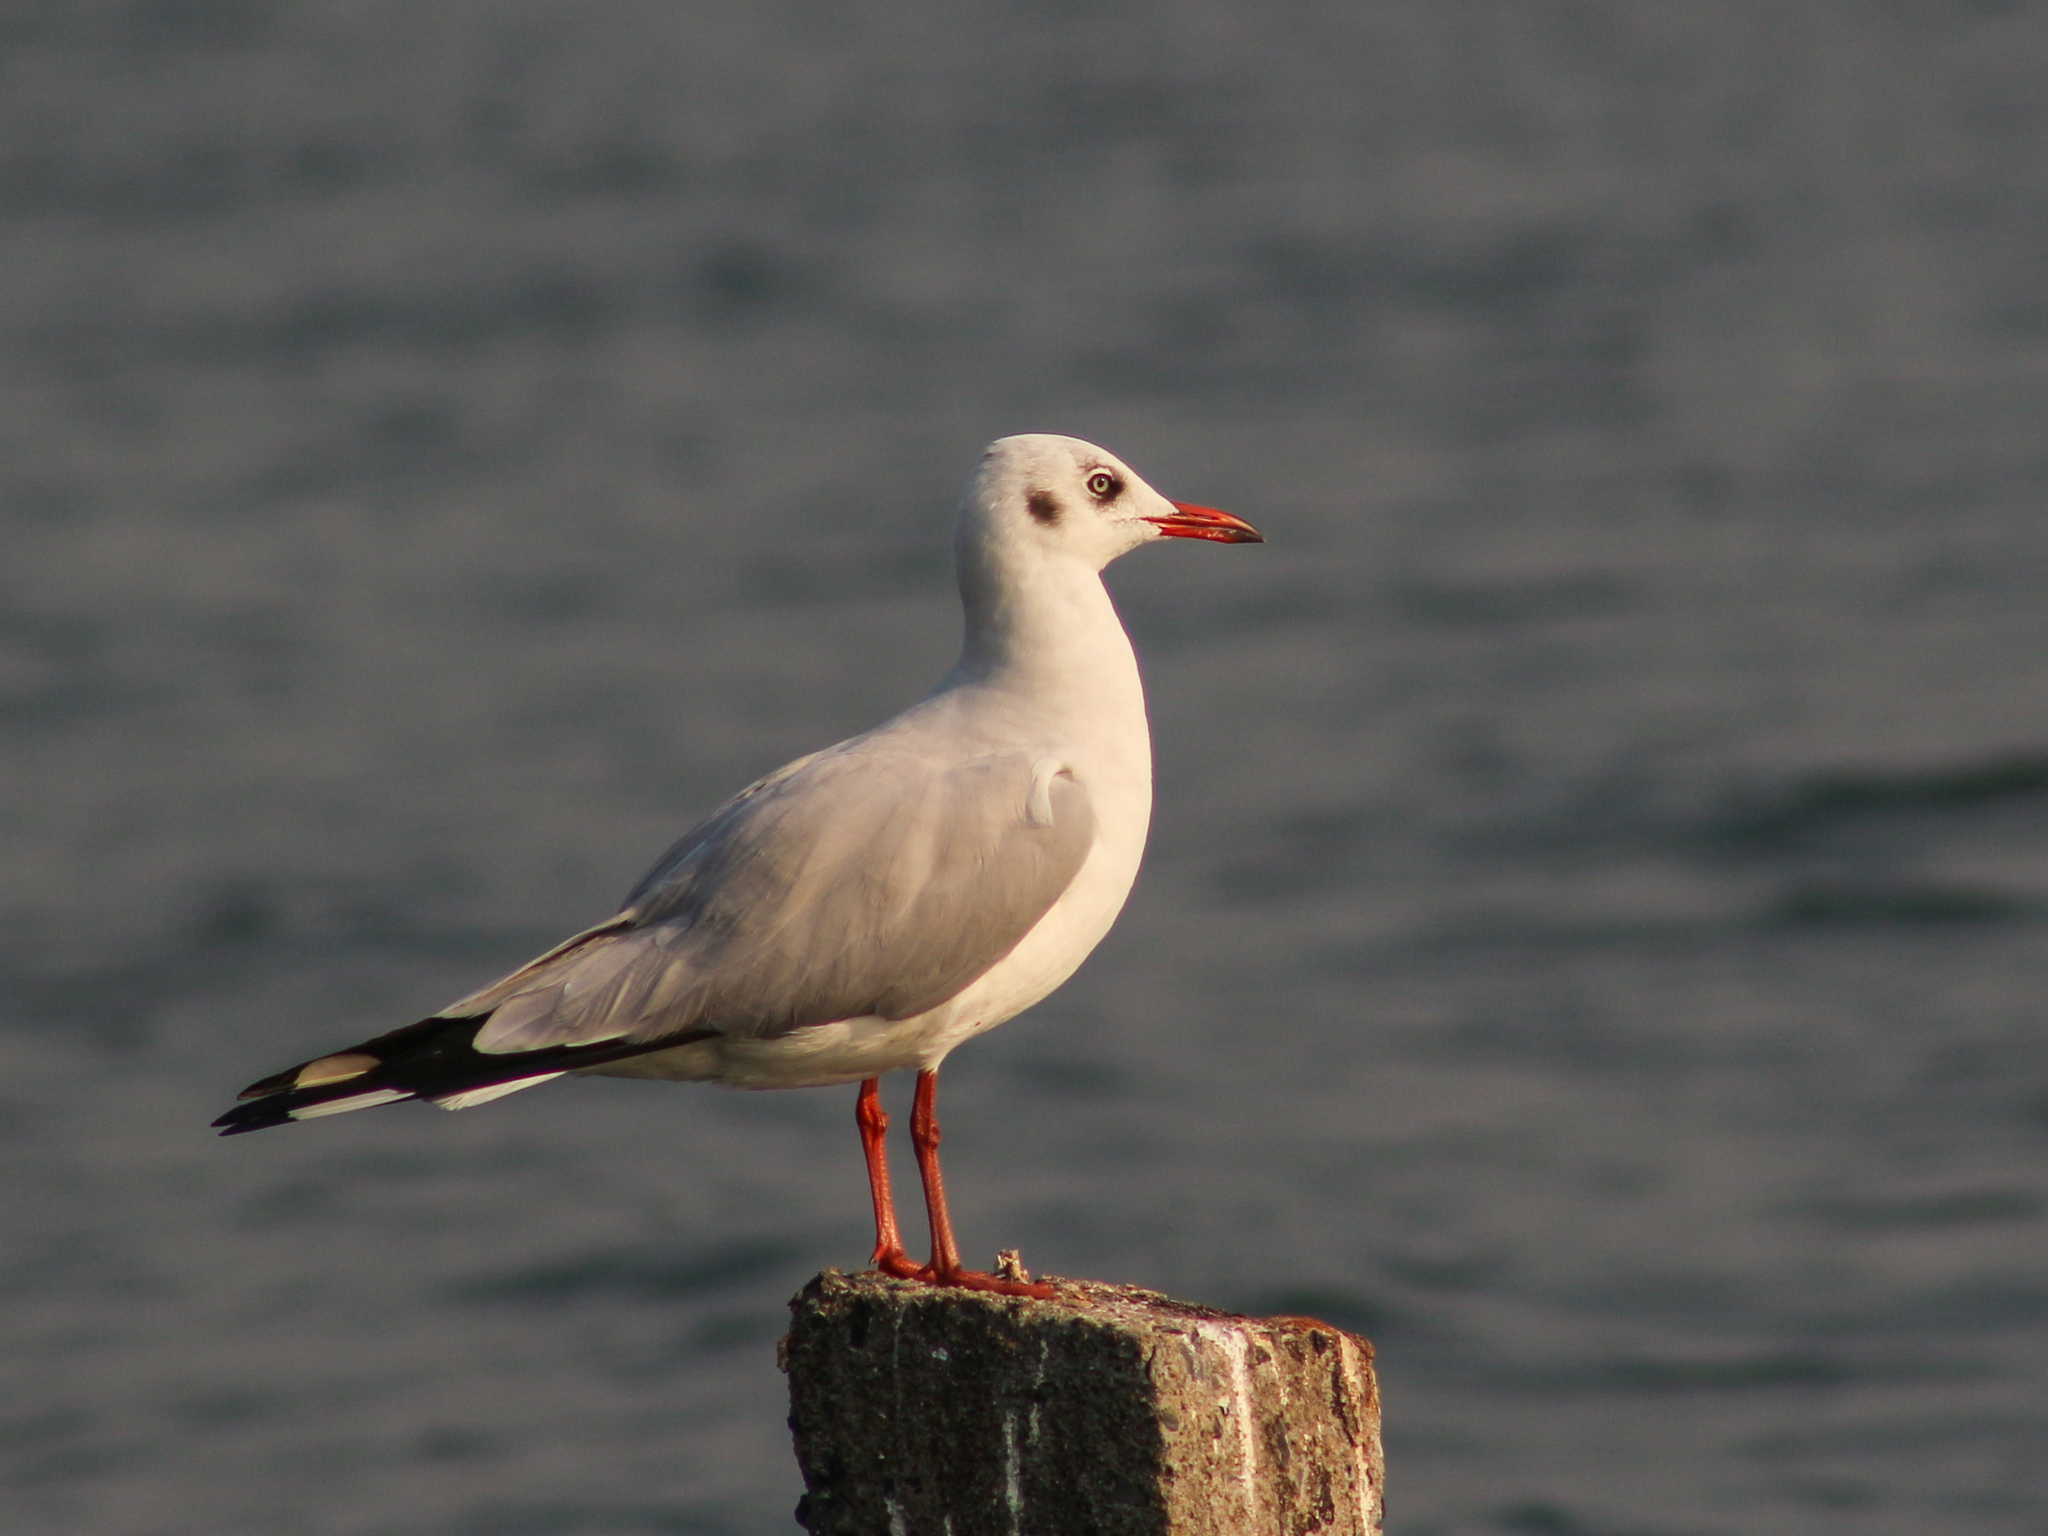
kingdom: Animalia
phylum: Chordata
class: Aves
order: Charadriiformes
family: Laridae
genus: Chroicocephalus
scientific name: Chroicocephalus brunnicephalus
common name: Brown-headed gull
